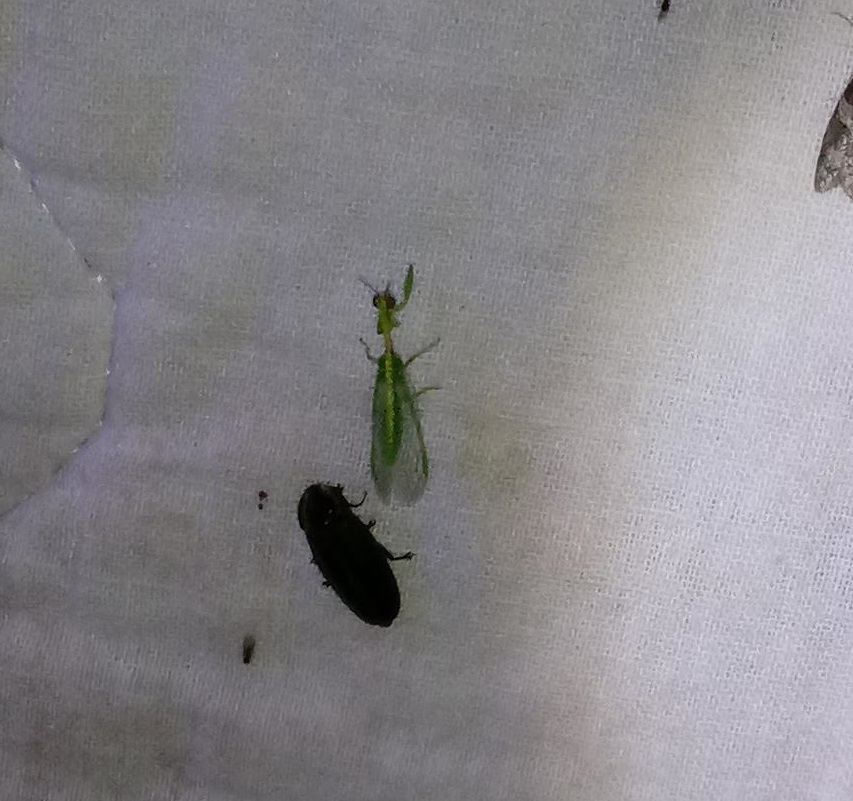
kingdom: Animalia
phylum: Arthropoda
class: Insecta
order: Neuroptera
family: Mantispidae
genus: Zeugomantispa
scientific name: Zeugomantispa minuta
